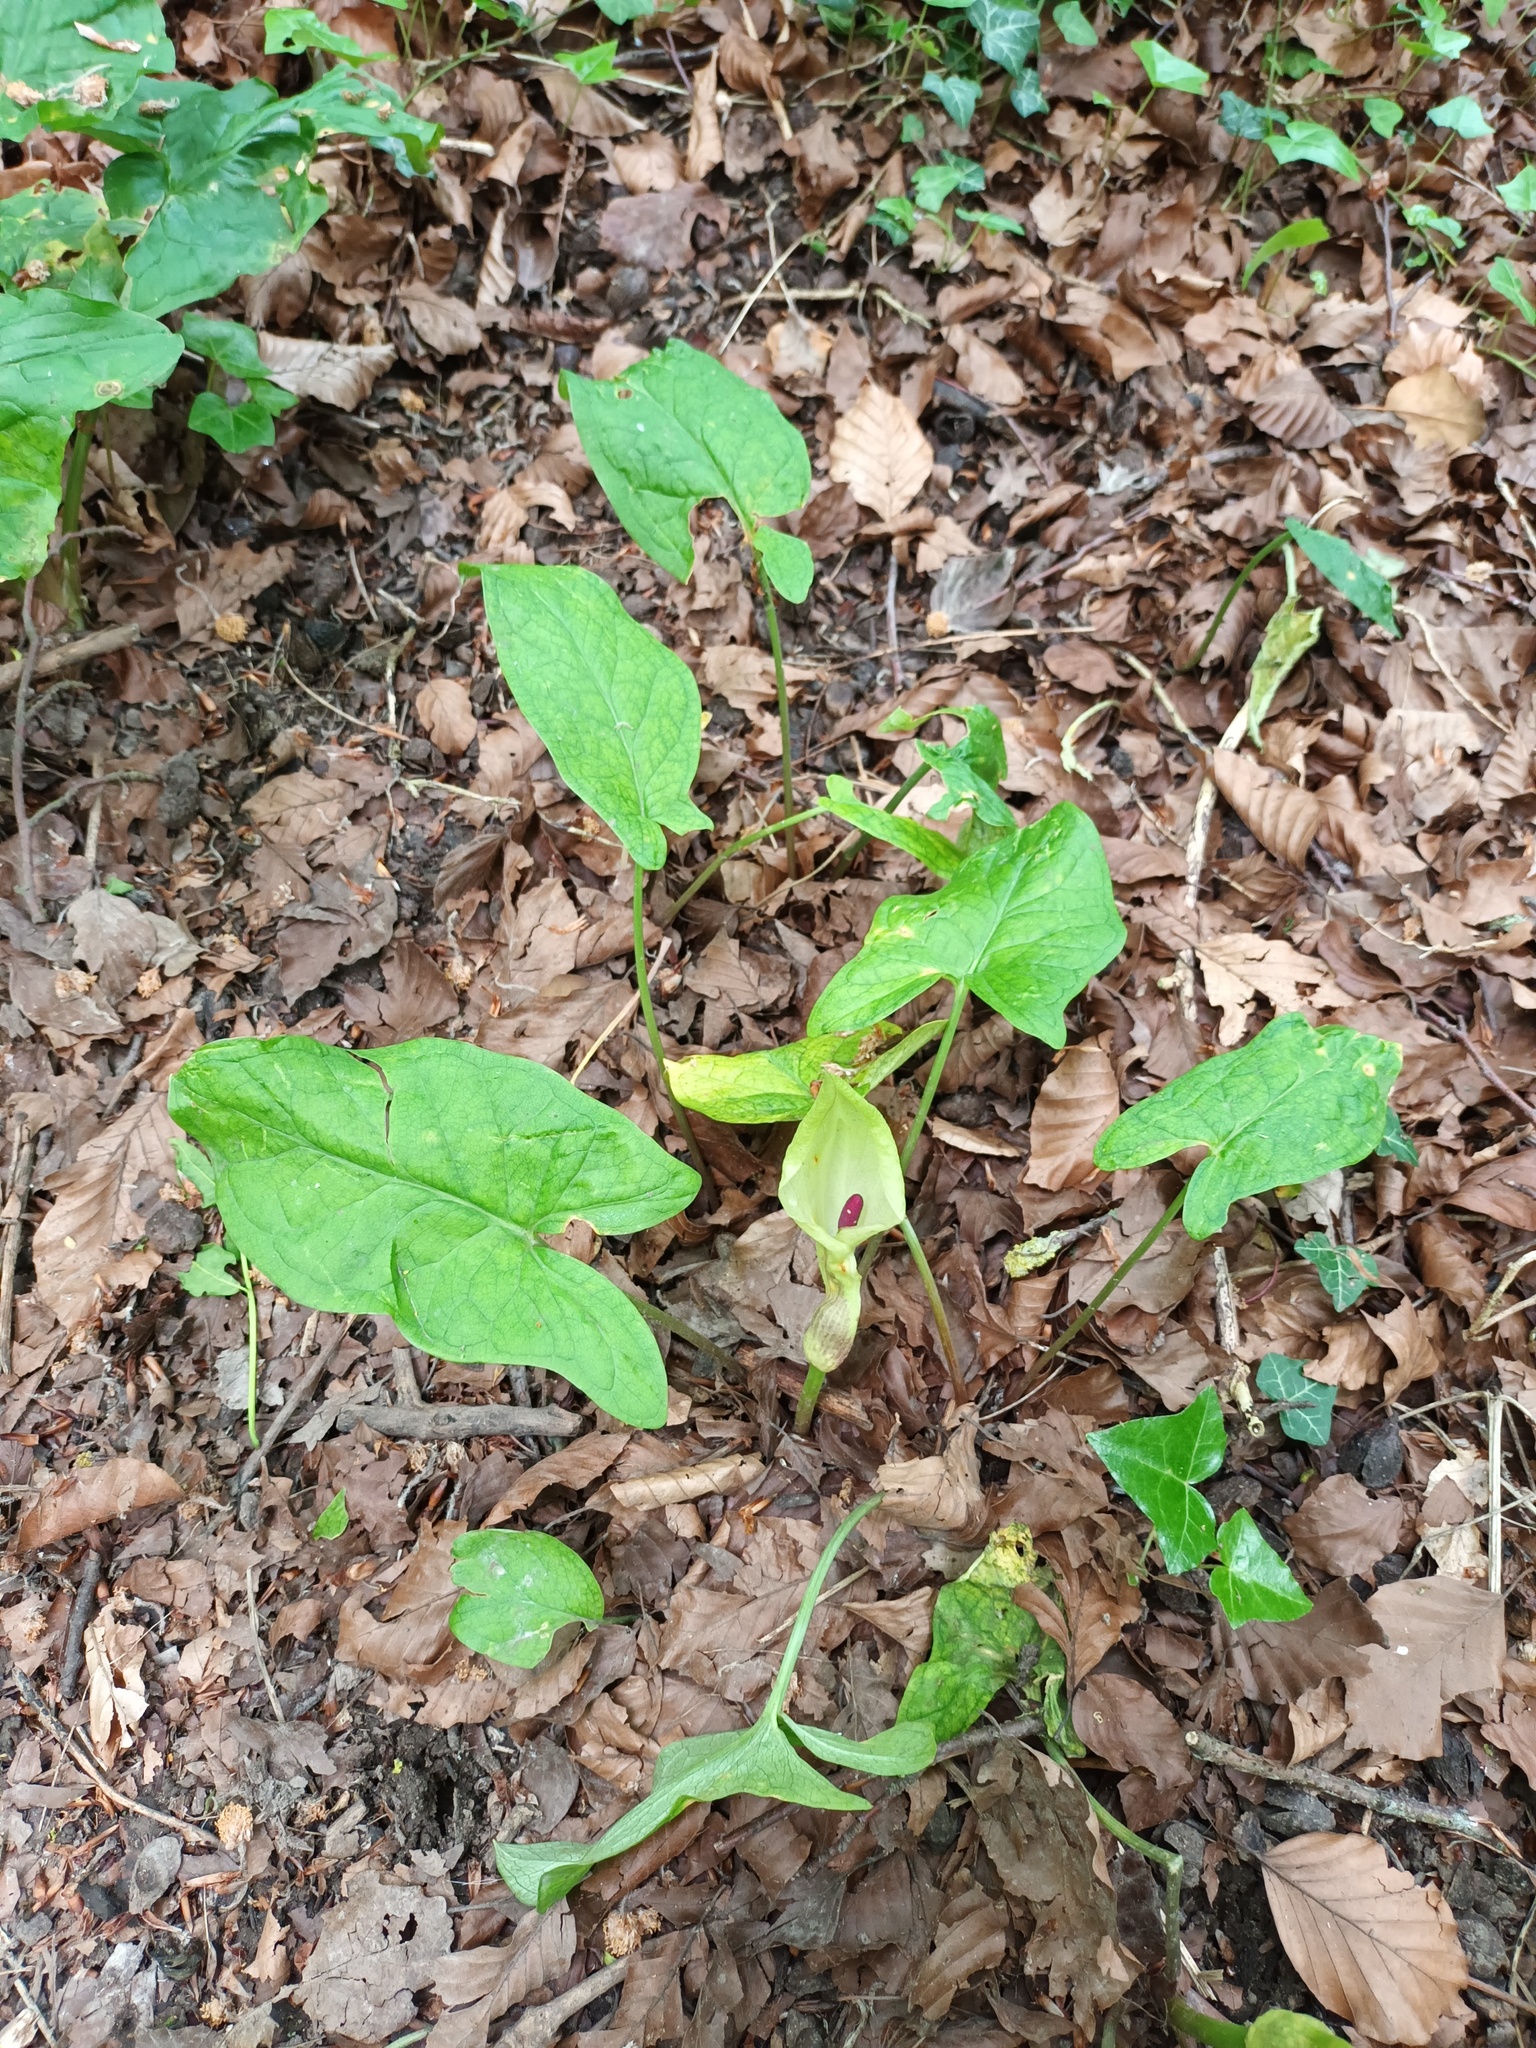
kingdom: Plantae
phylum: Tracheophyta
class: Liliopsida
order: Alismatales
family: Araceae
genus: Arum
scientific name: Arum maculatum
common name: Lords-and-ladies
